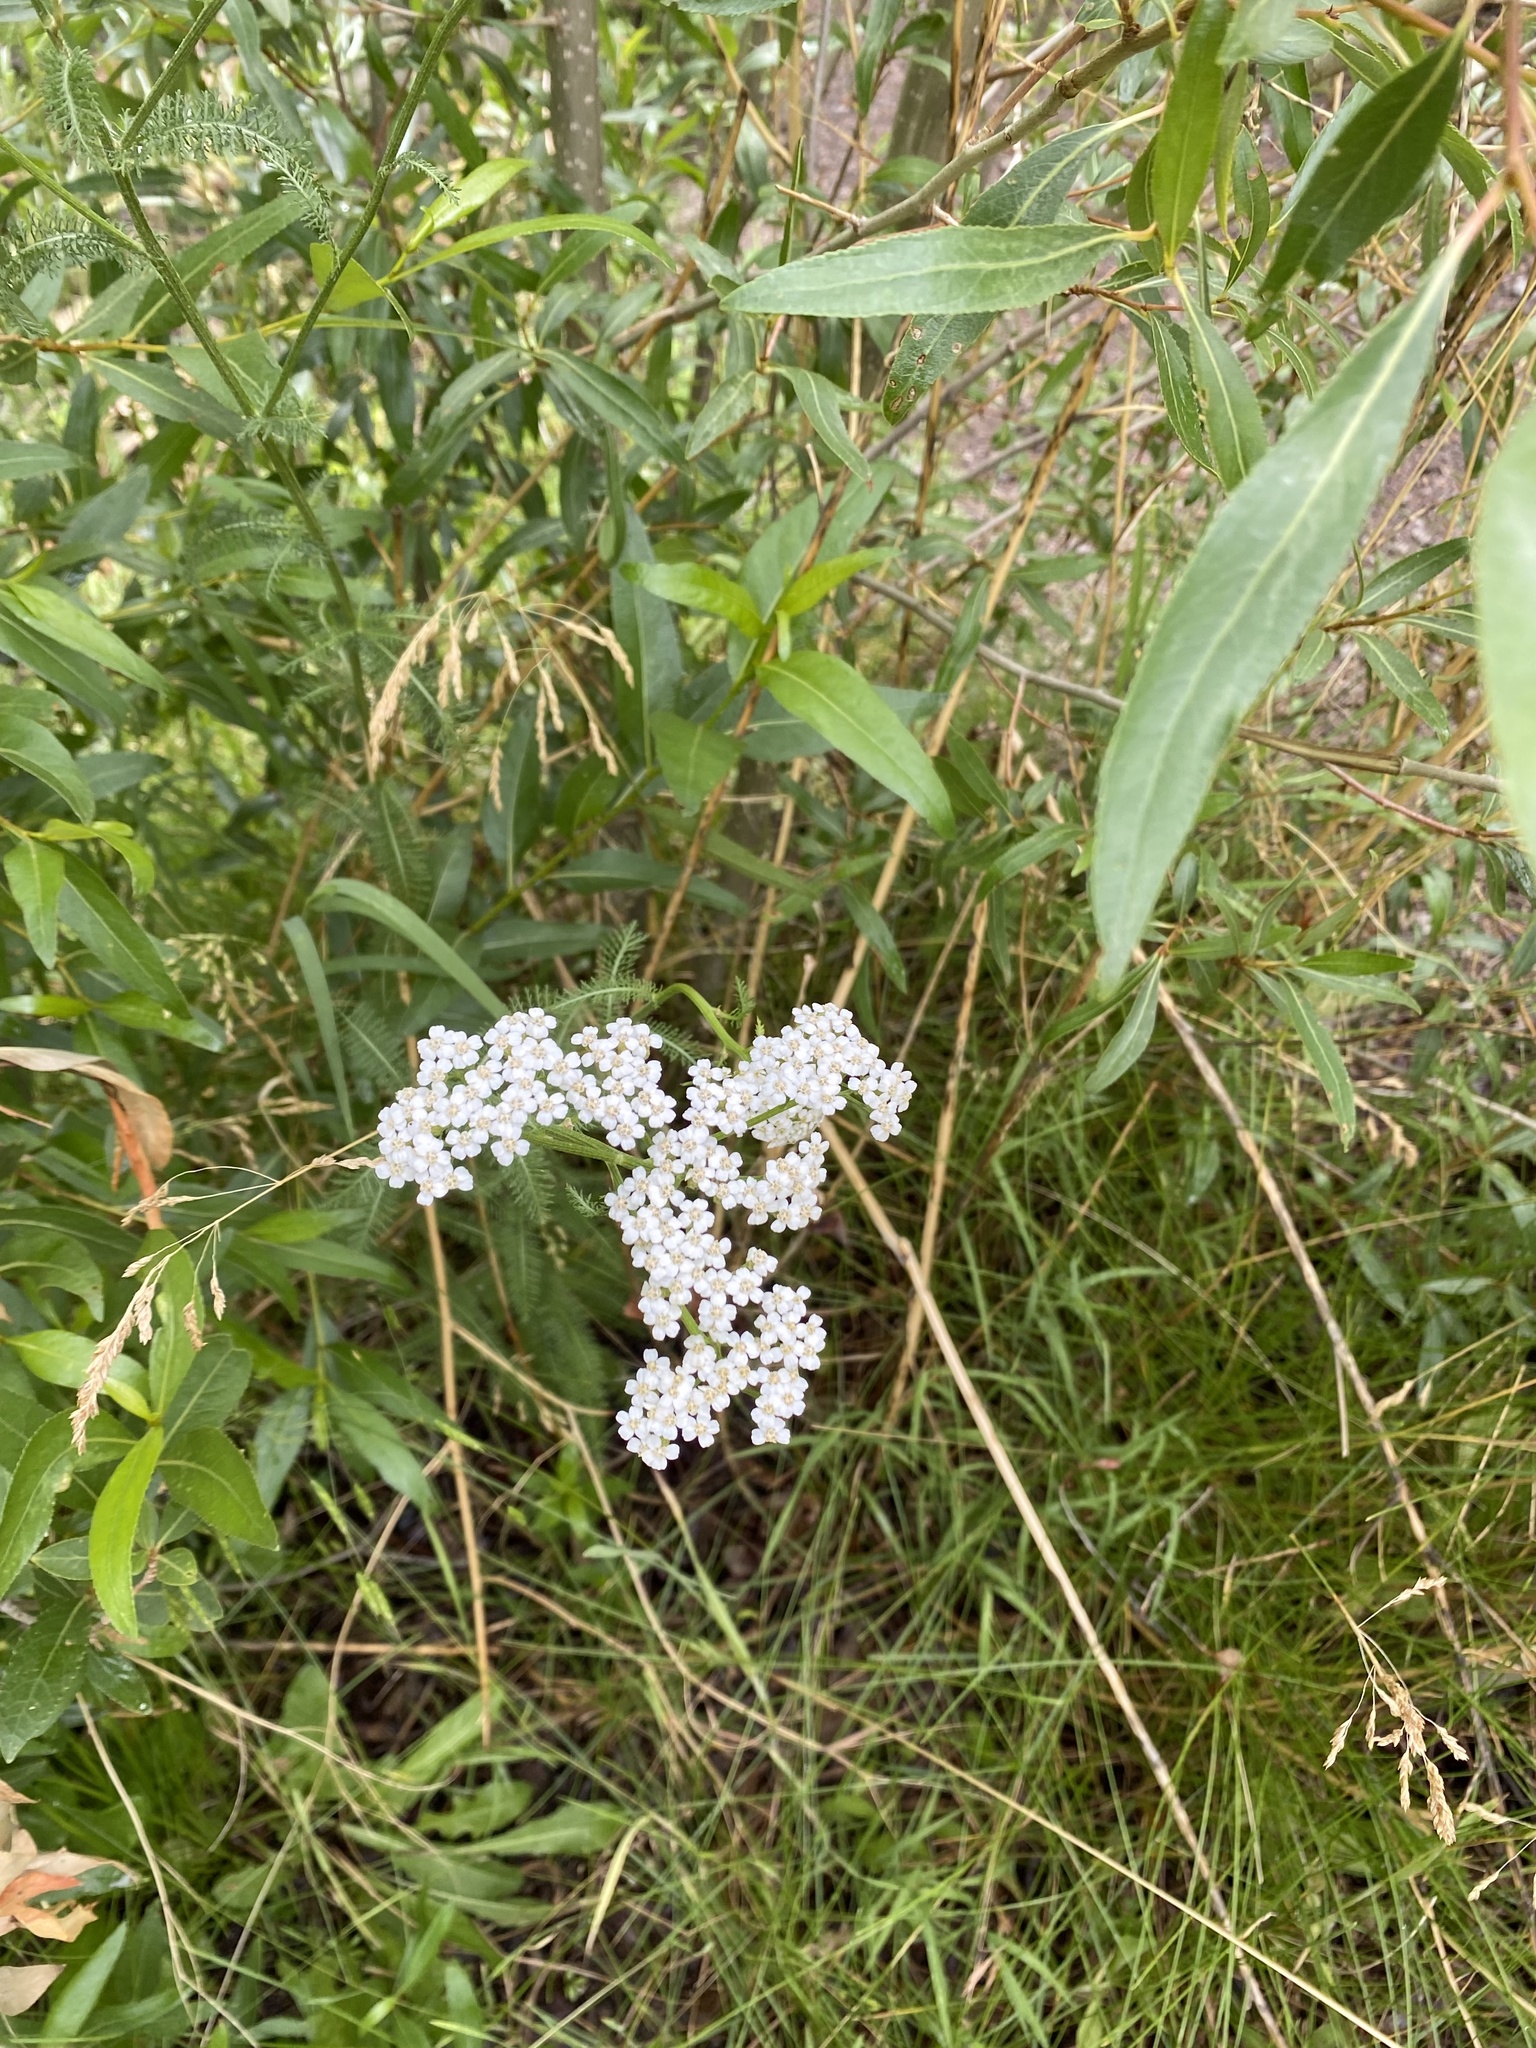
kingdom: Plantae
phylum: Tracheophyta
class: Magnoliopsida
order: Asterales
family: Asteraceae
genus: Achillea
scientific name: Achillea millefolium
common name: Yarrow
